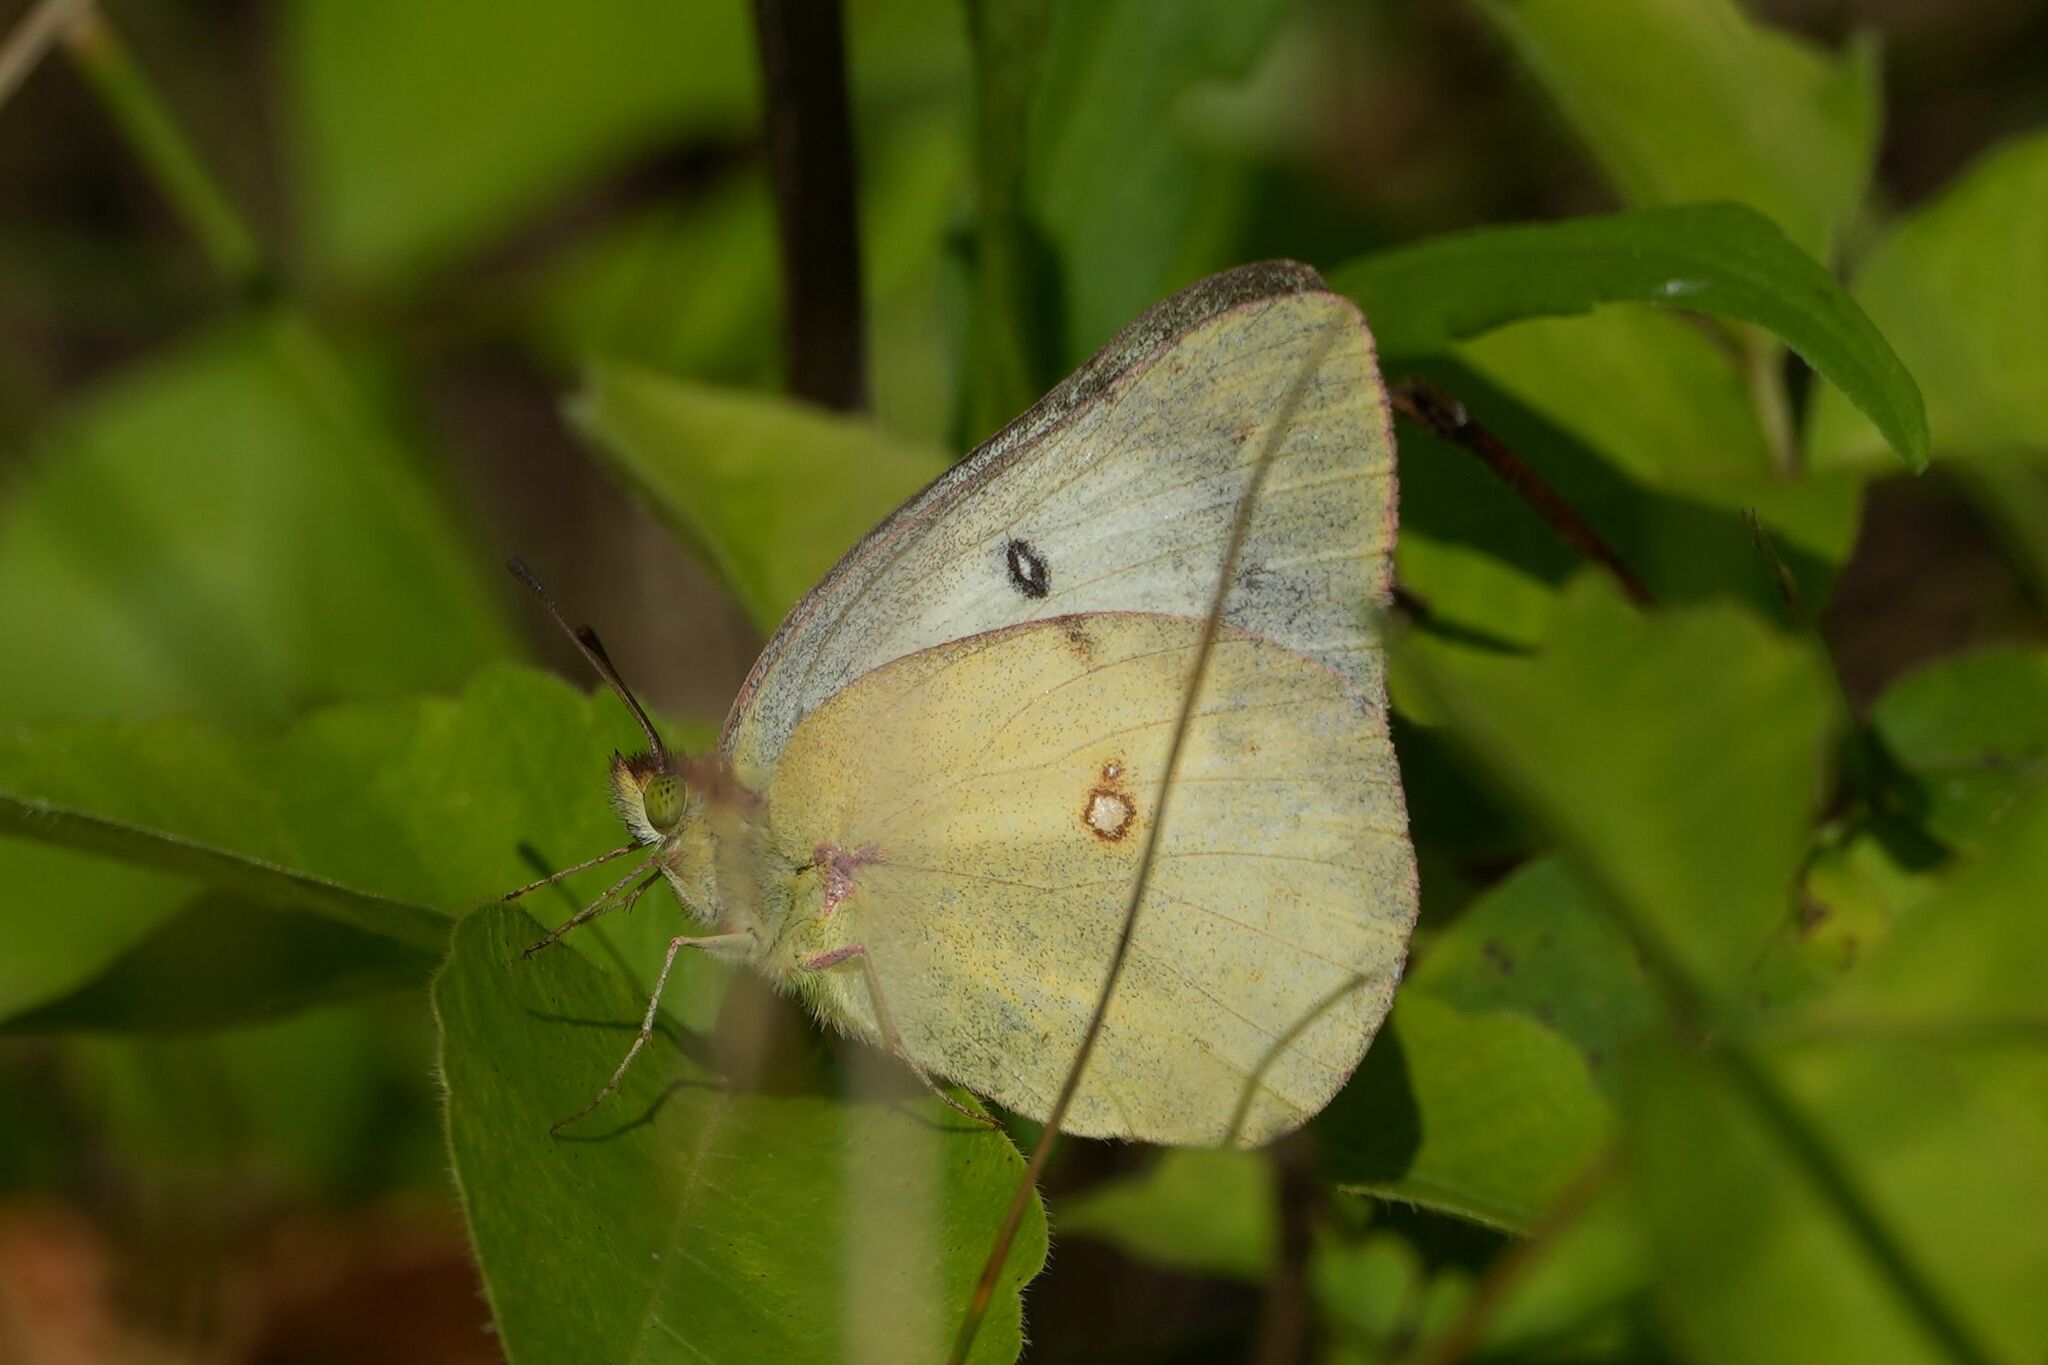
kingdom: Animalia
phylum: Arthropoda
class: Insecta
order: Lepidoptera
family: Pieridae
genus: Colias
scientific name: Colias philodice
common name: Clouded sulphur
